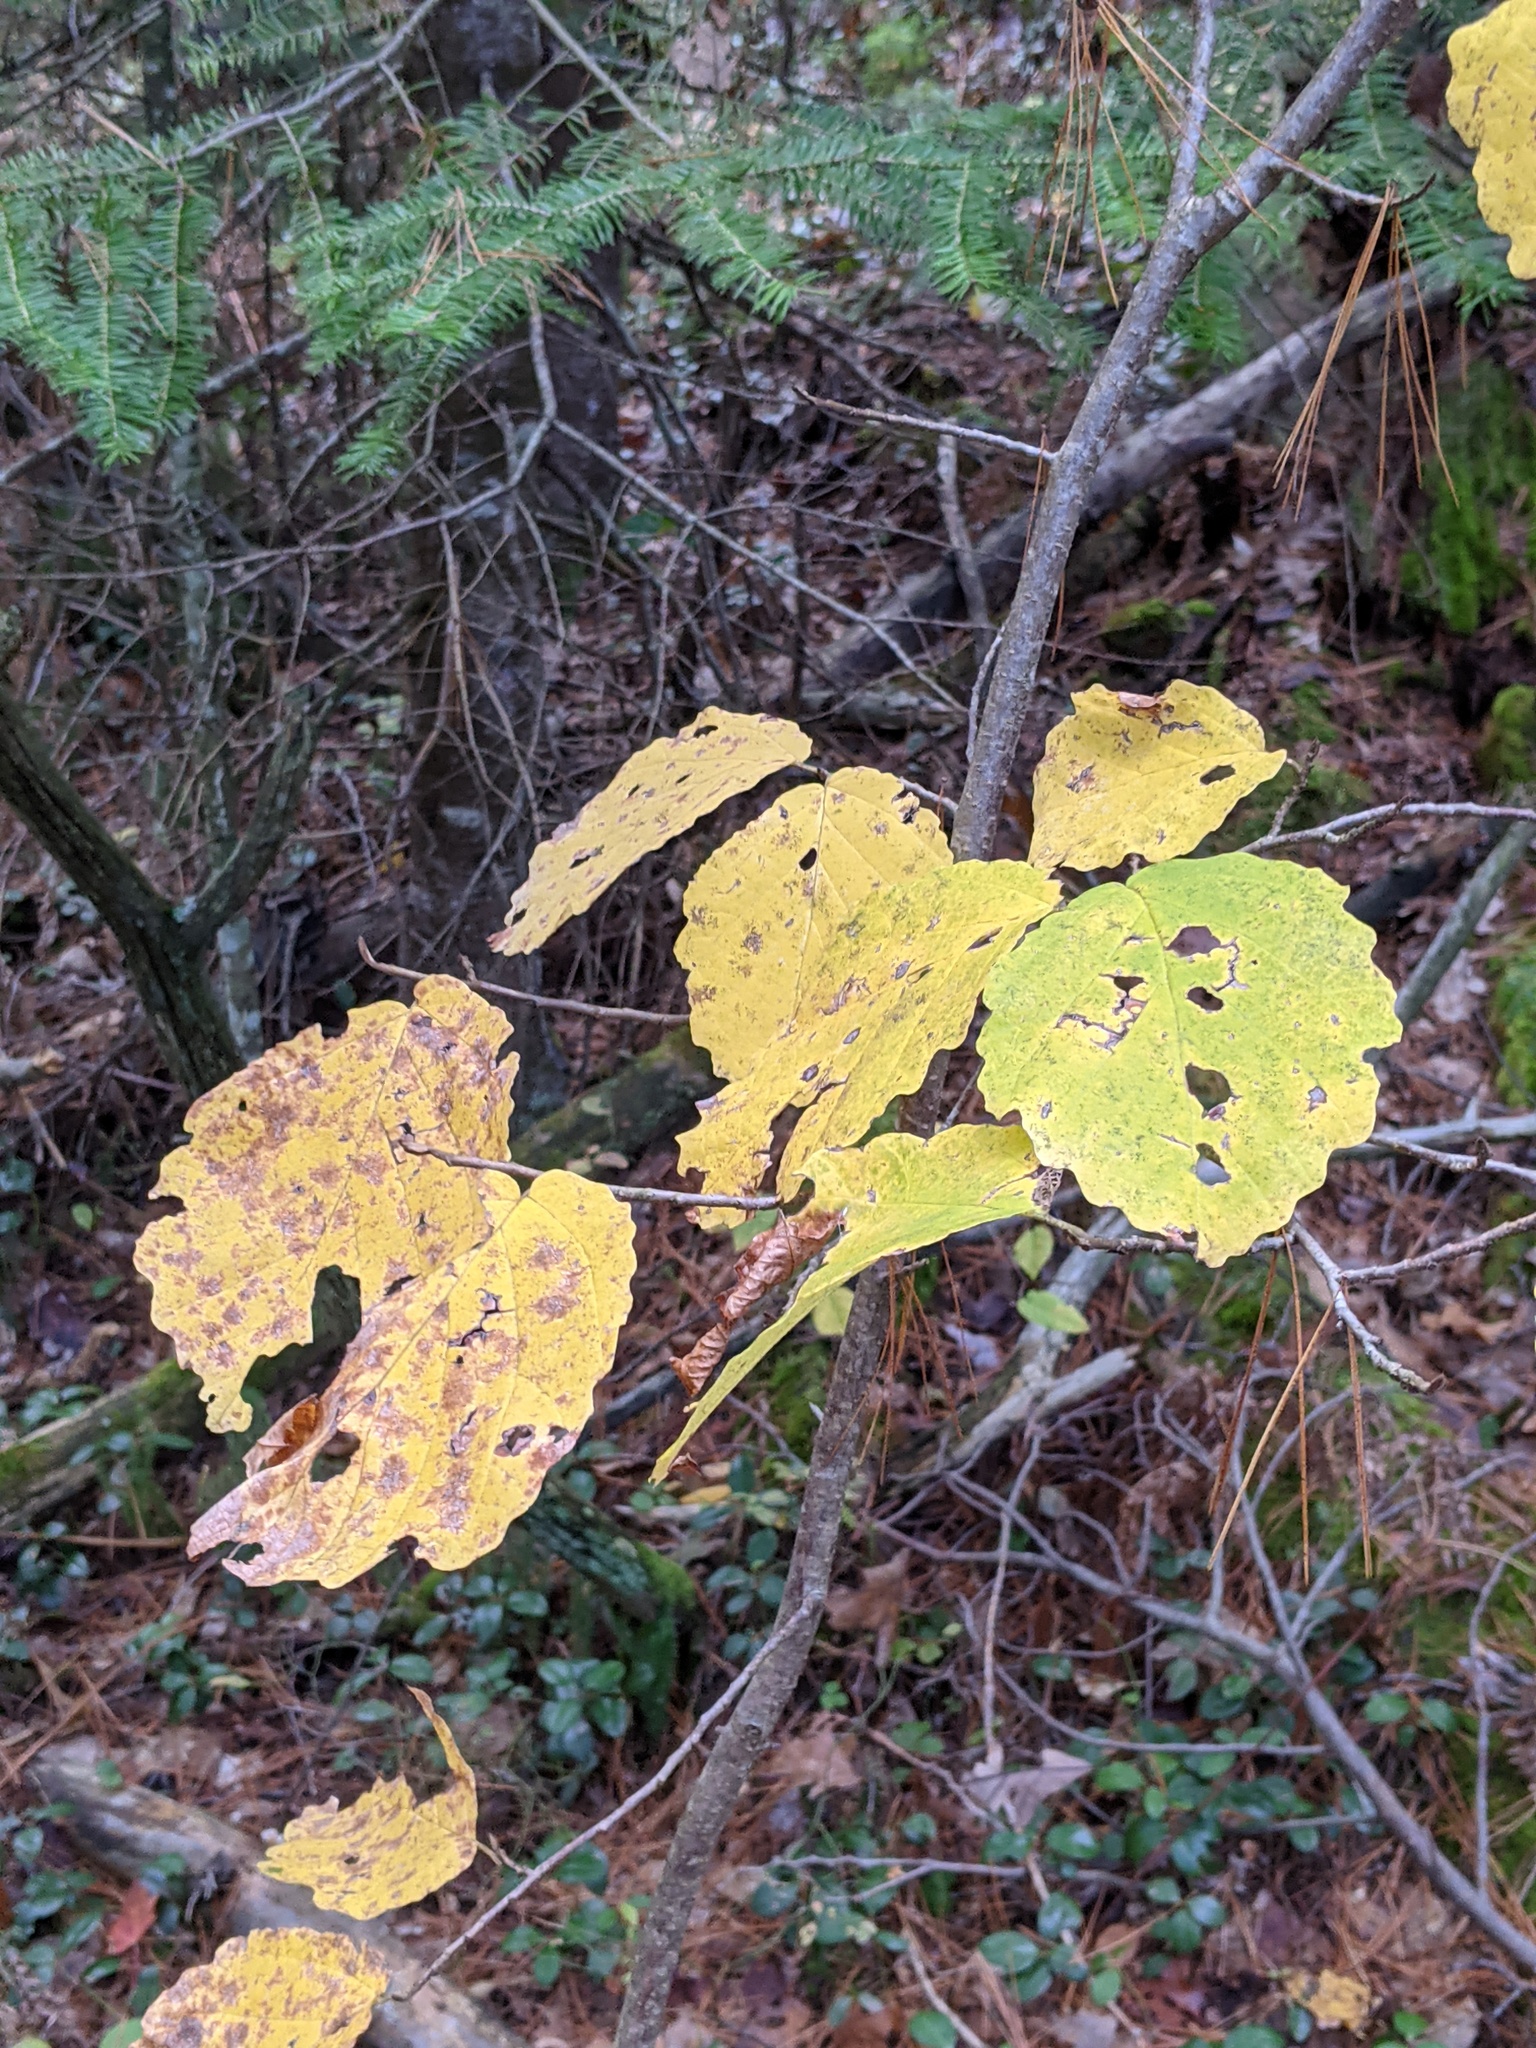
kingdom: Plantae
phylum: Tracheophyta
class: Magnoliopsida
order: Saxifragales
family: Hamamelidaceae
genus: Hamamelis
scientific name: Hamamelis virginiana
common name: Witch-hazel
